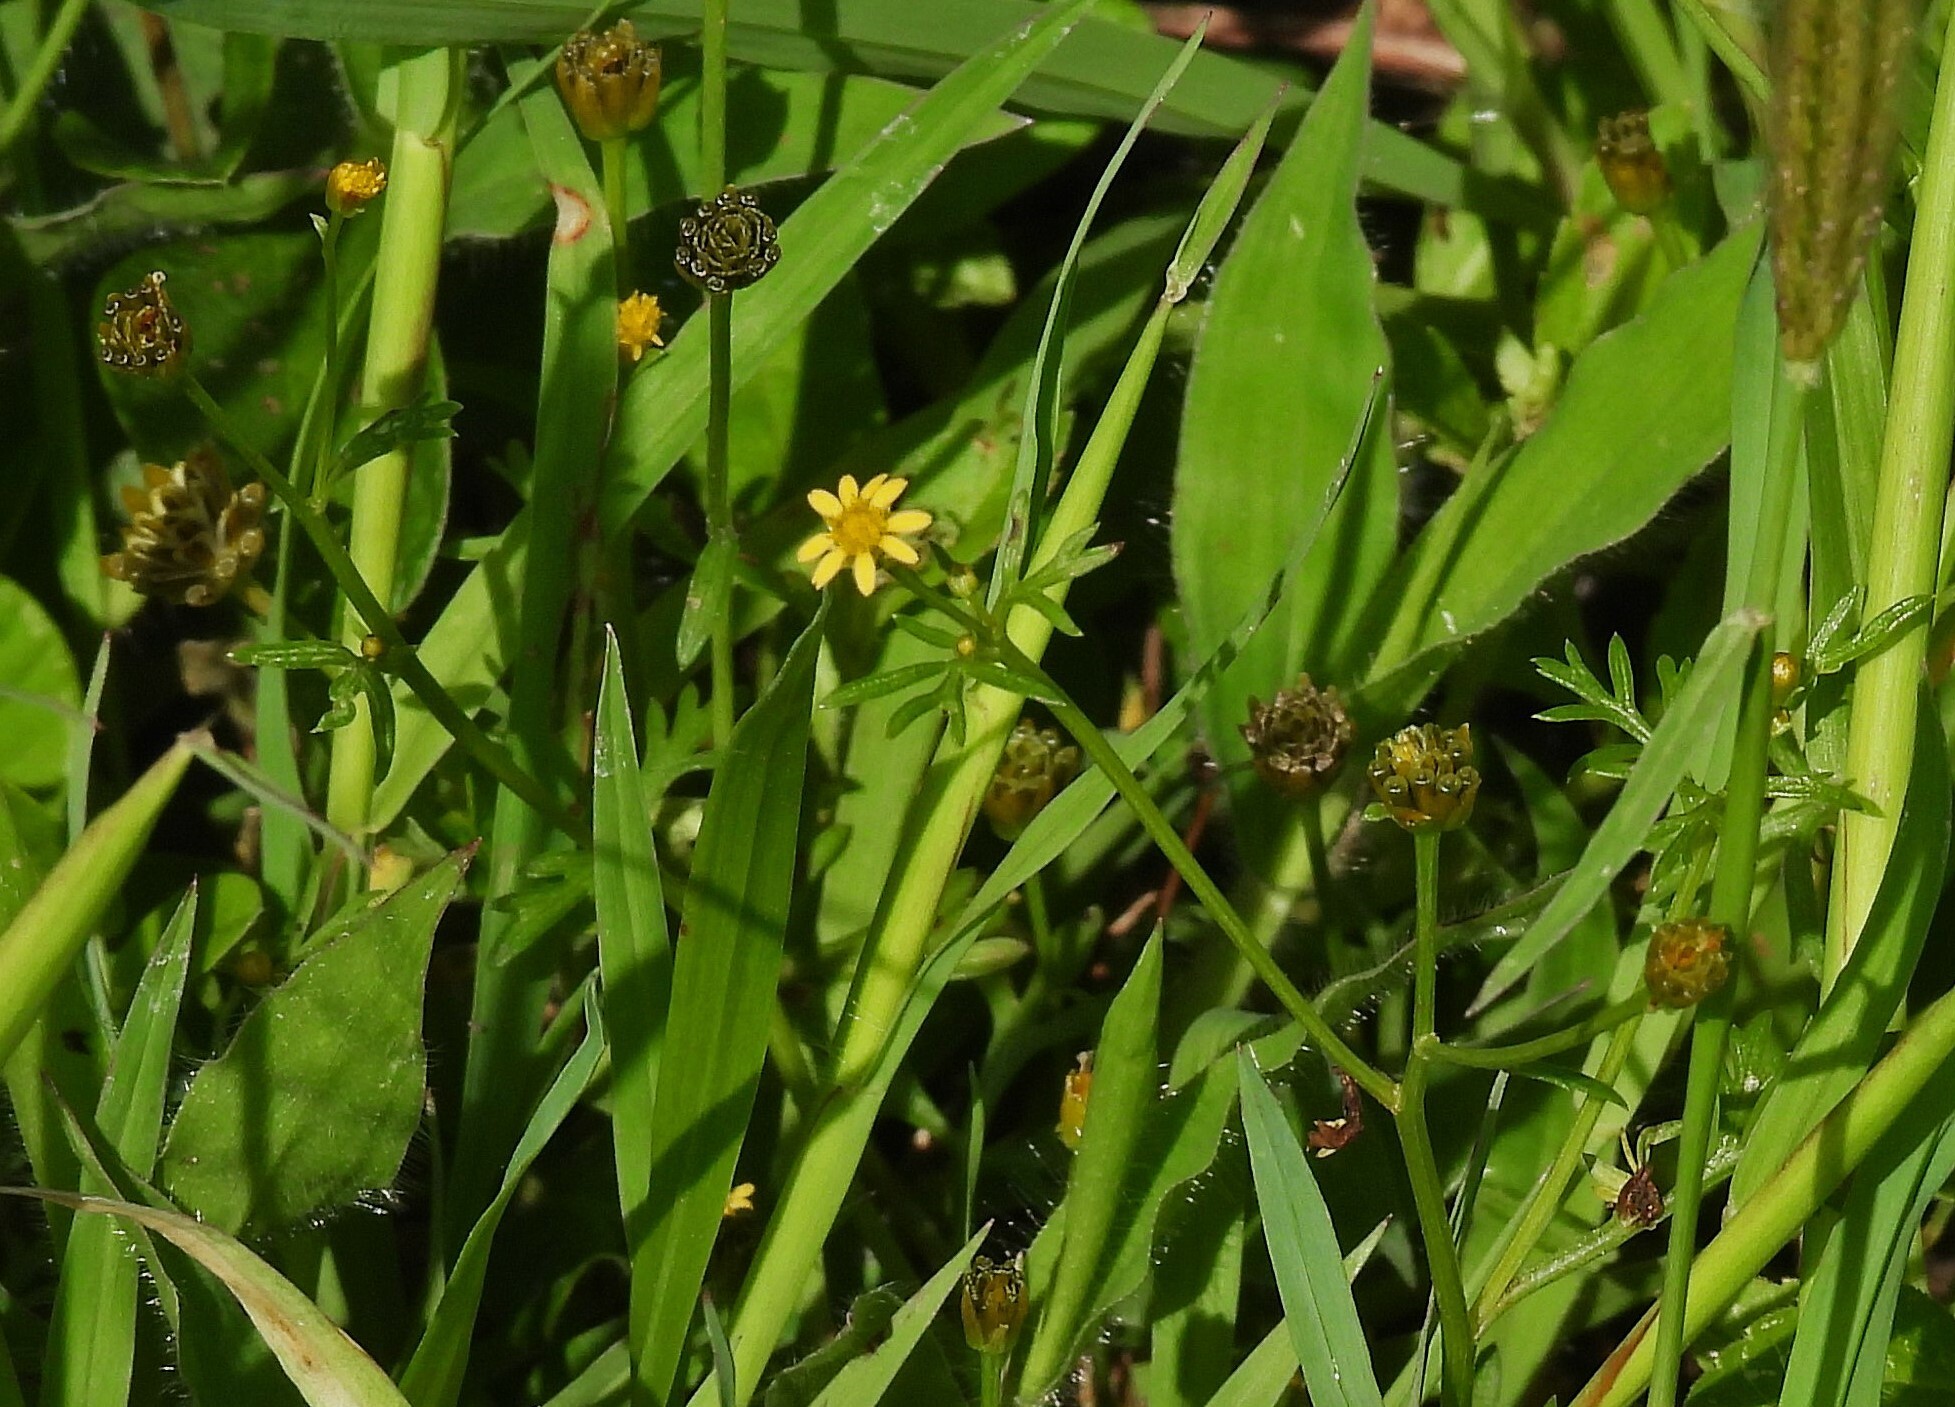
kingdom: Plantae
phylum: Tracheophyta
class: Magnoliopsida
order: Asterales
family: Asteraceae
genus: Chrysanthellum
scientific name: Chrysanthellum indicum
